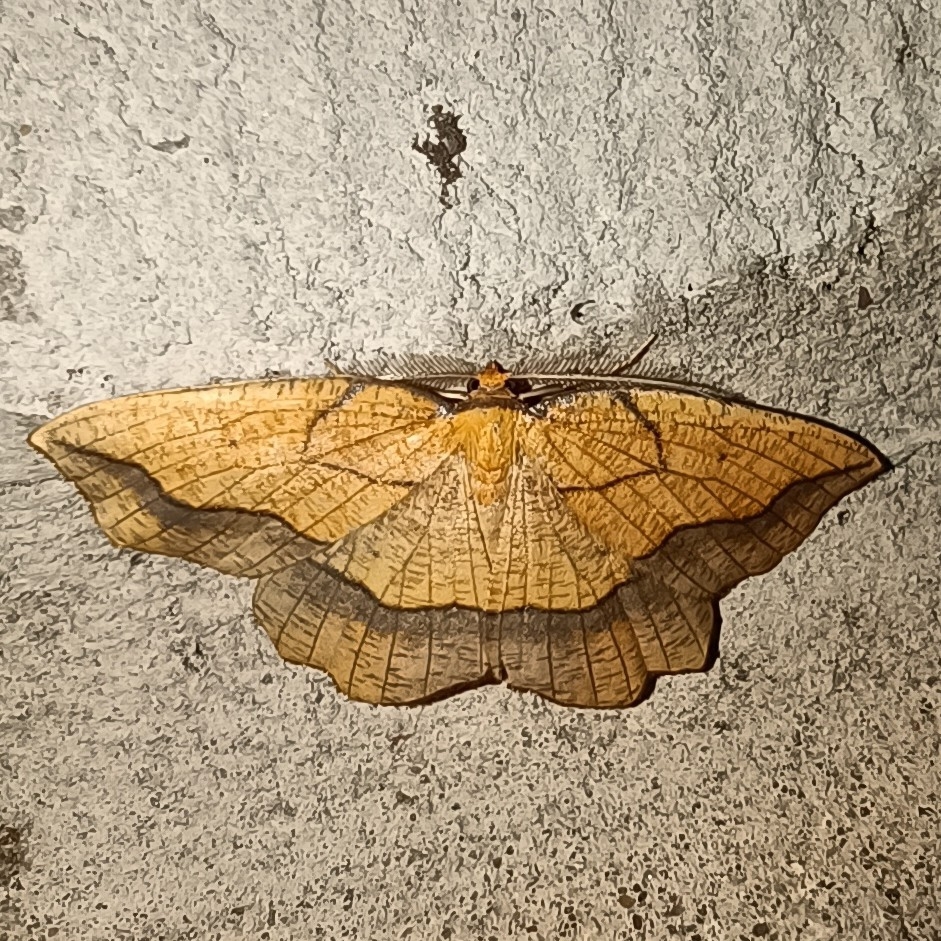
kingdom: Animalia
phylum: Arthropoda
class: Insecta
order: Lepidoptera
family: Geometridae
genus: Epione
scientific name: Epione repandaria
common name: Bordered beauty
